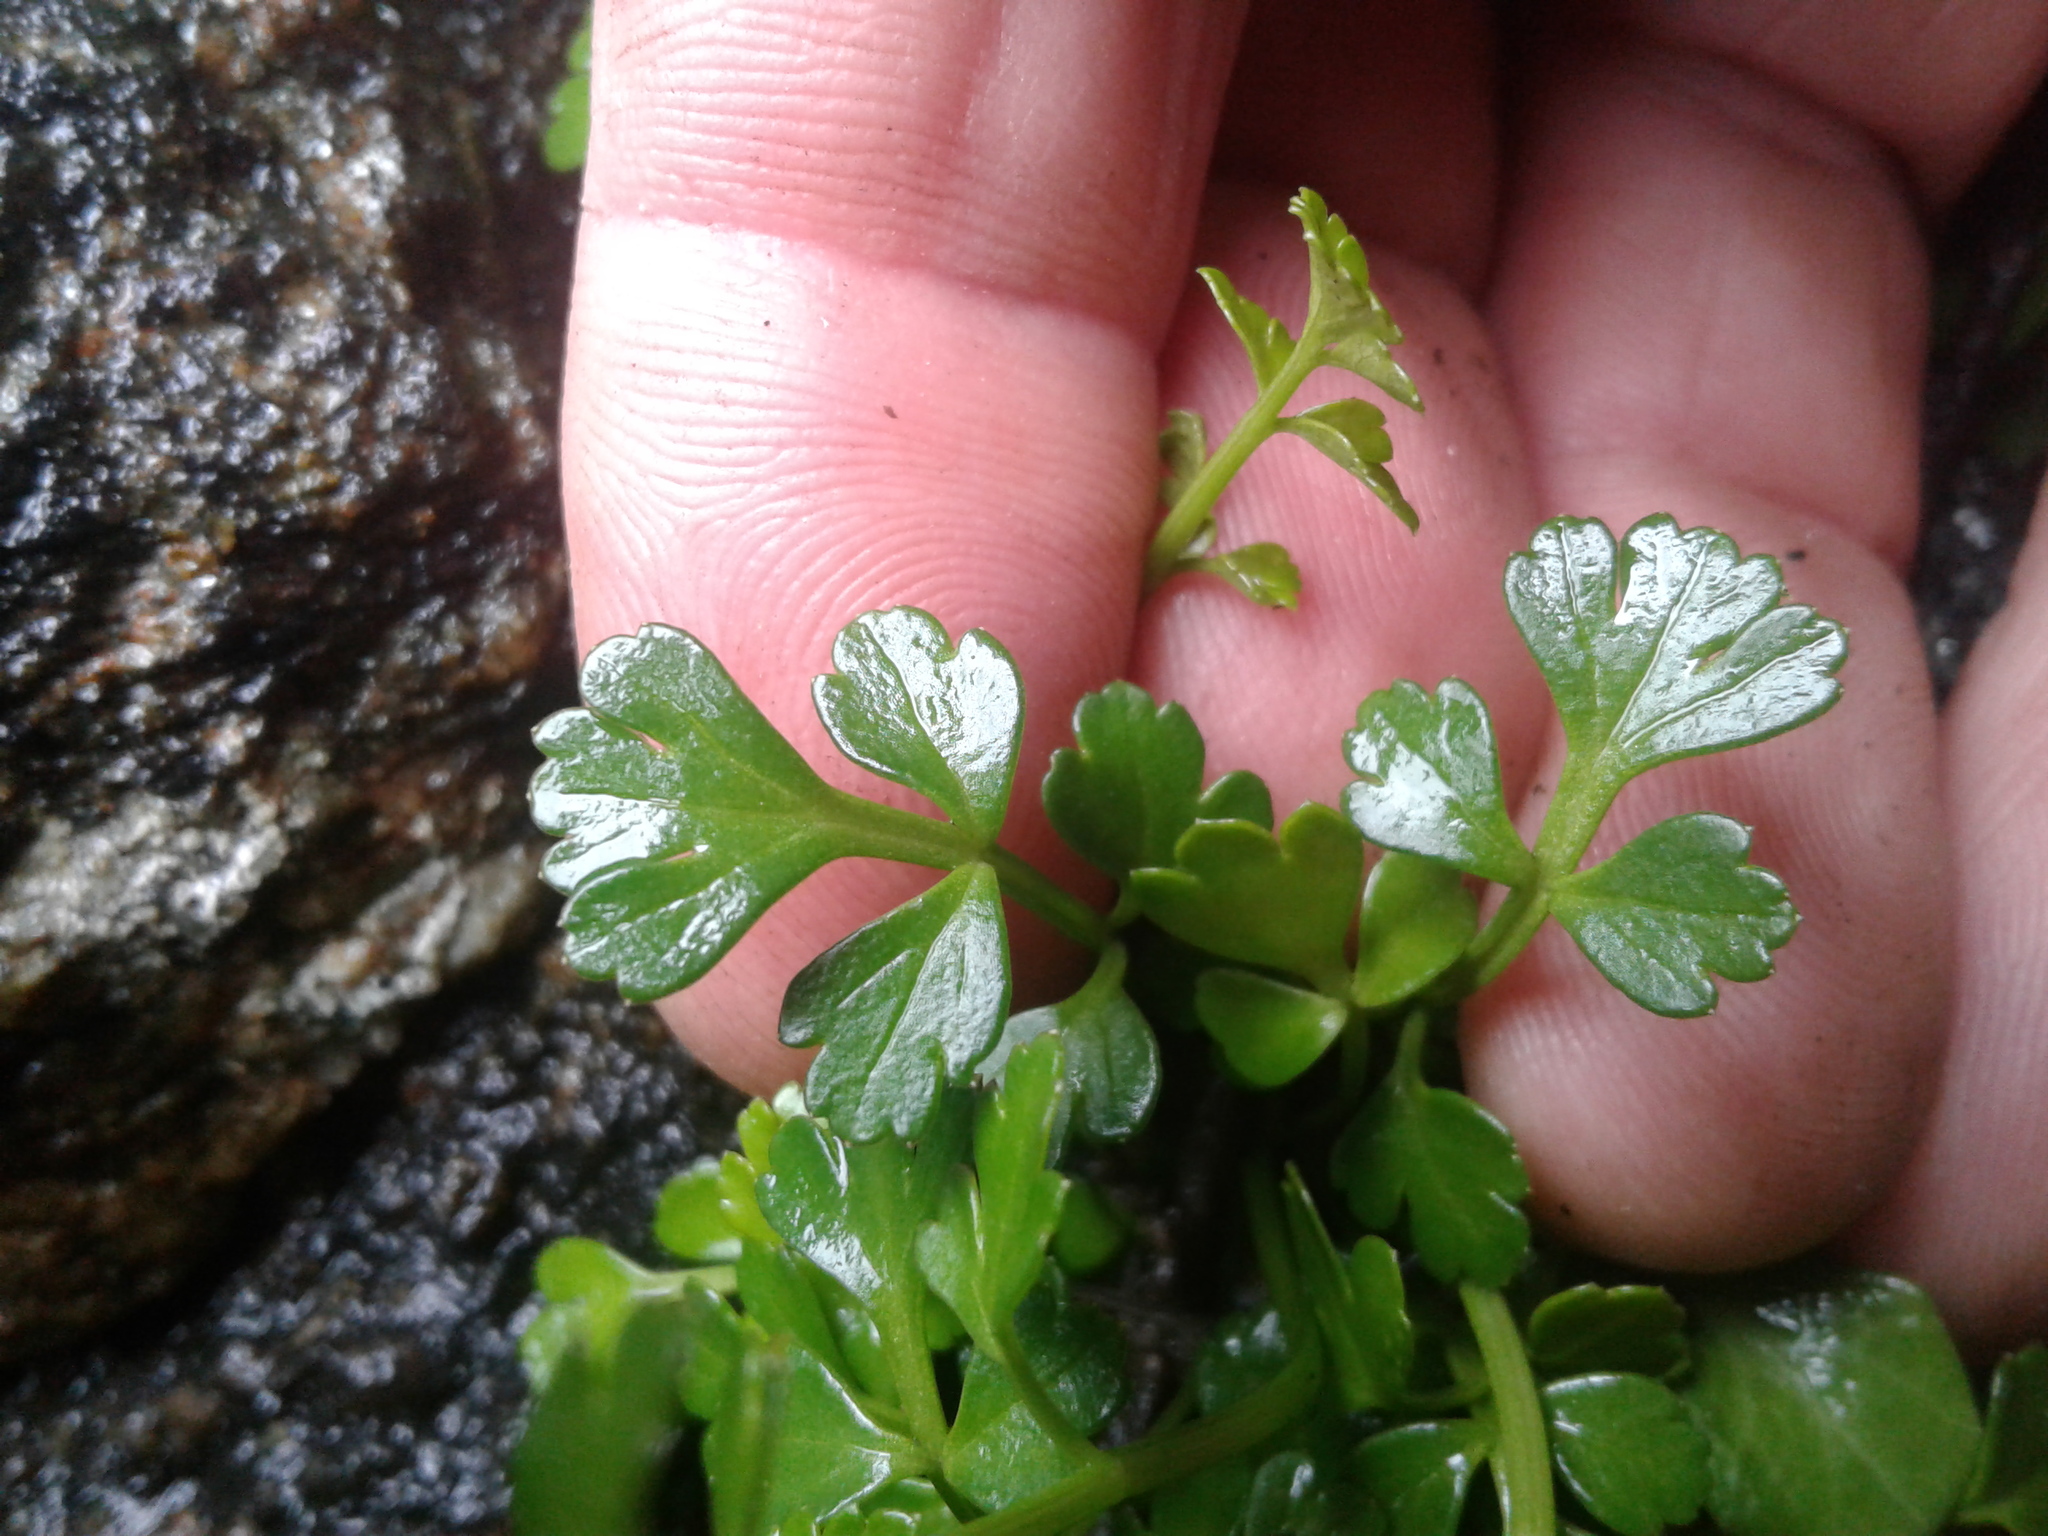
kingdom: Plantae
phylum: Tracheophyta
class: Magnoliopsida
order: Apiales
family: Apiaceae
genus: Apium
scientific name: Apium prostratum
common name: Prostrate marshwort
